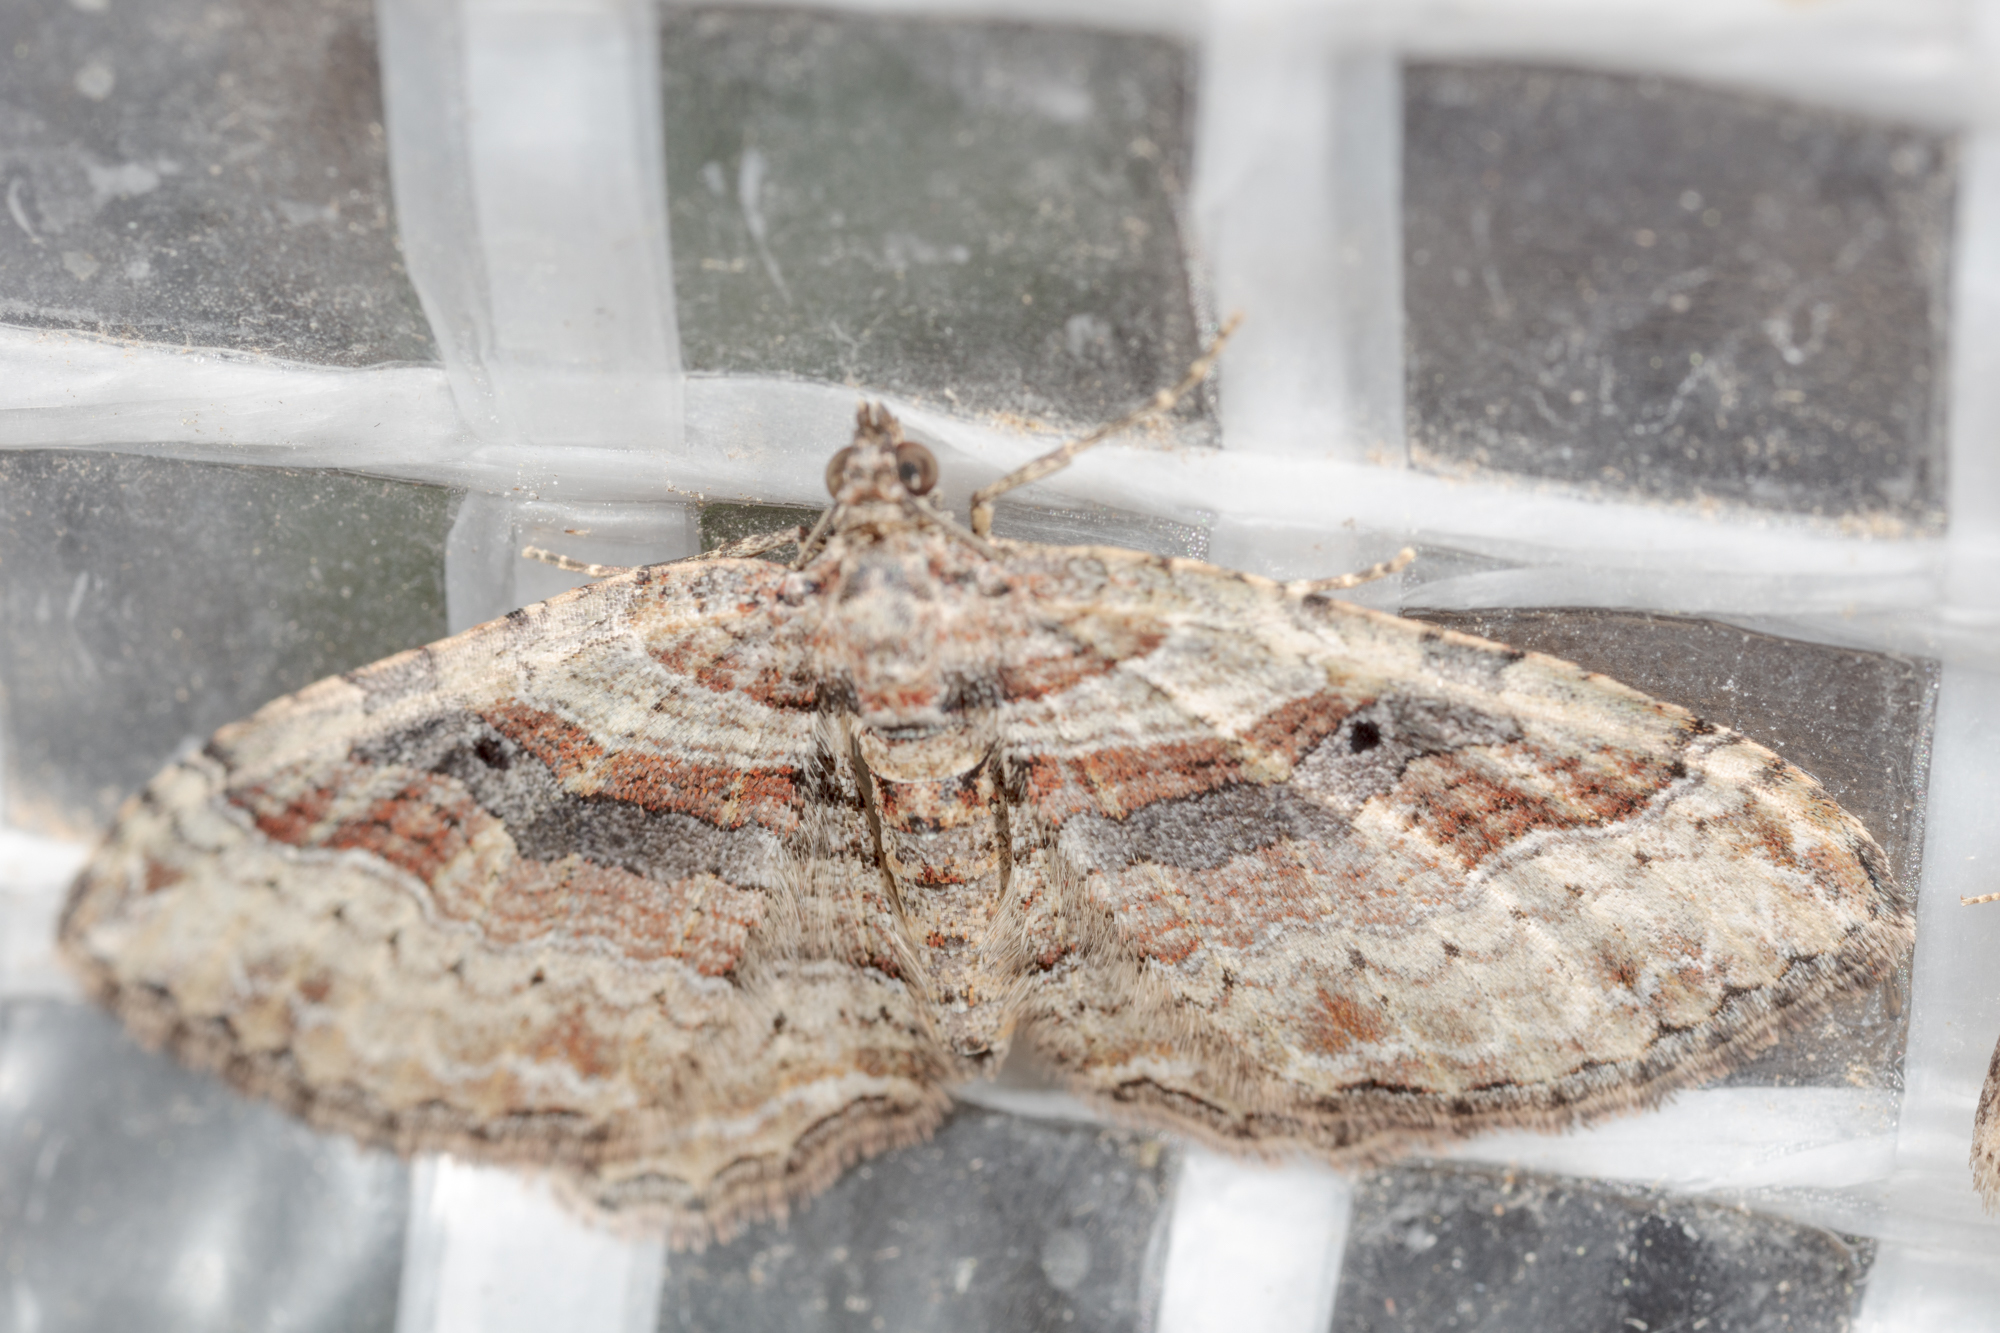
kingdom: Animalia
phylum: Arthropoda
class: Insecta
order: Lepidoptera
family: Geometridae
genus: Costaconvexa
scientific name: Costaconvexa centrostrigaria
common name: Bent-line carpet
